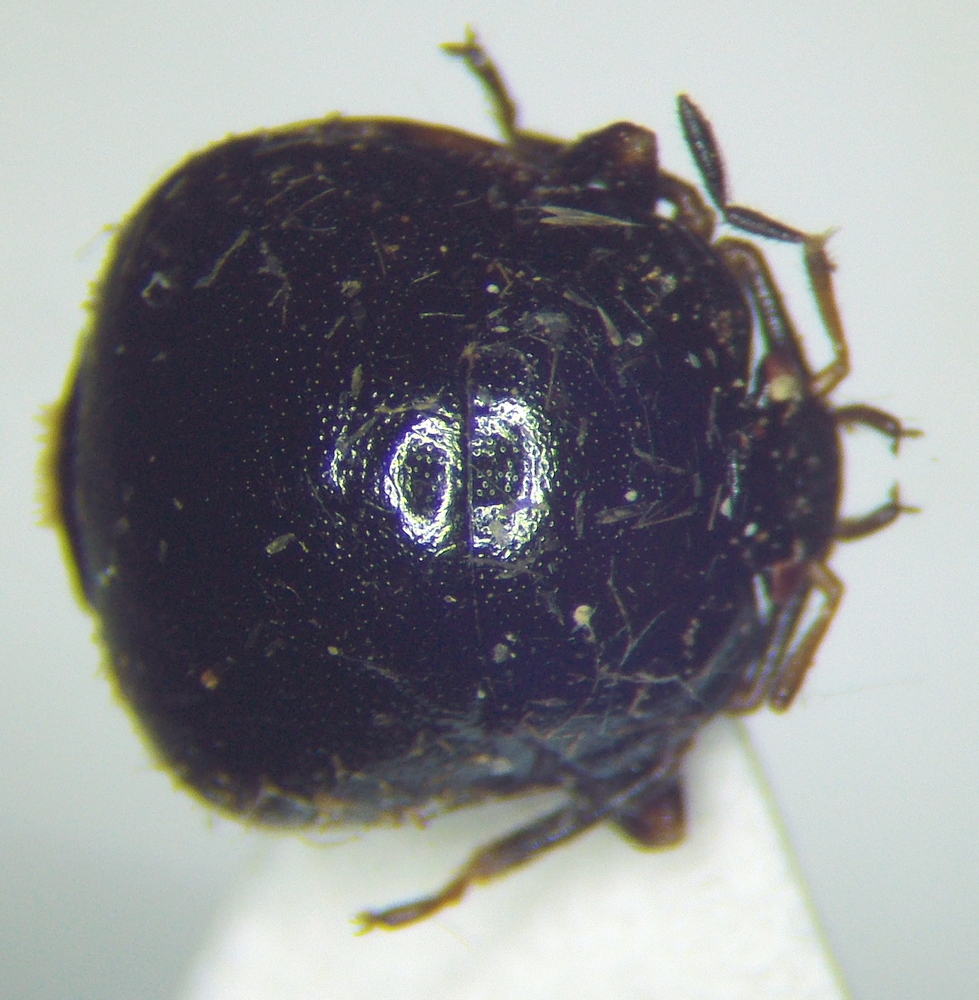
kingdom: Animalia
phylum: Arthropoda
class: Insecta
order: Hemiptera
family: Plataspidae
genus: Coptosoma
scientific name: Coptosoma scutellatum
